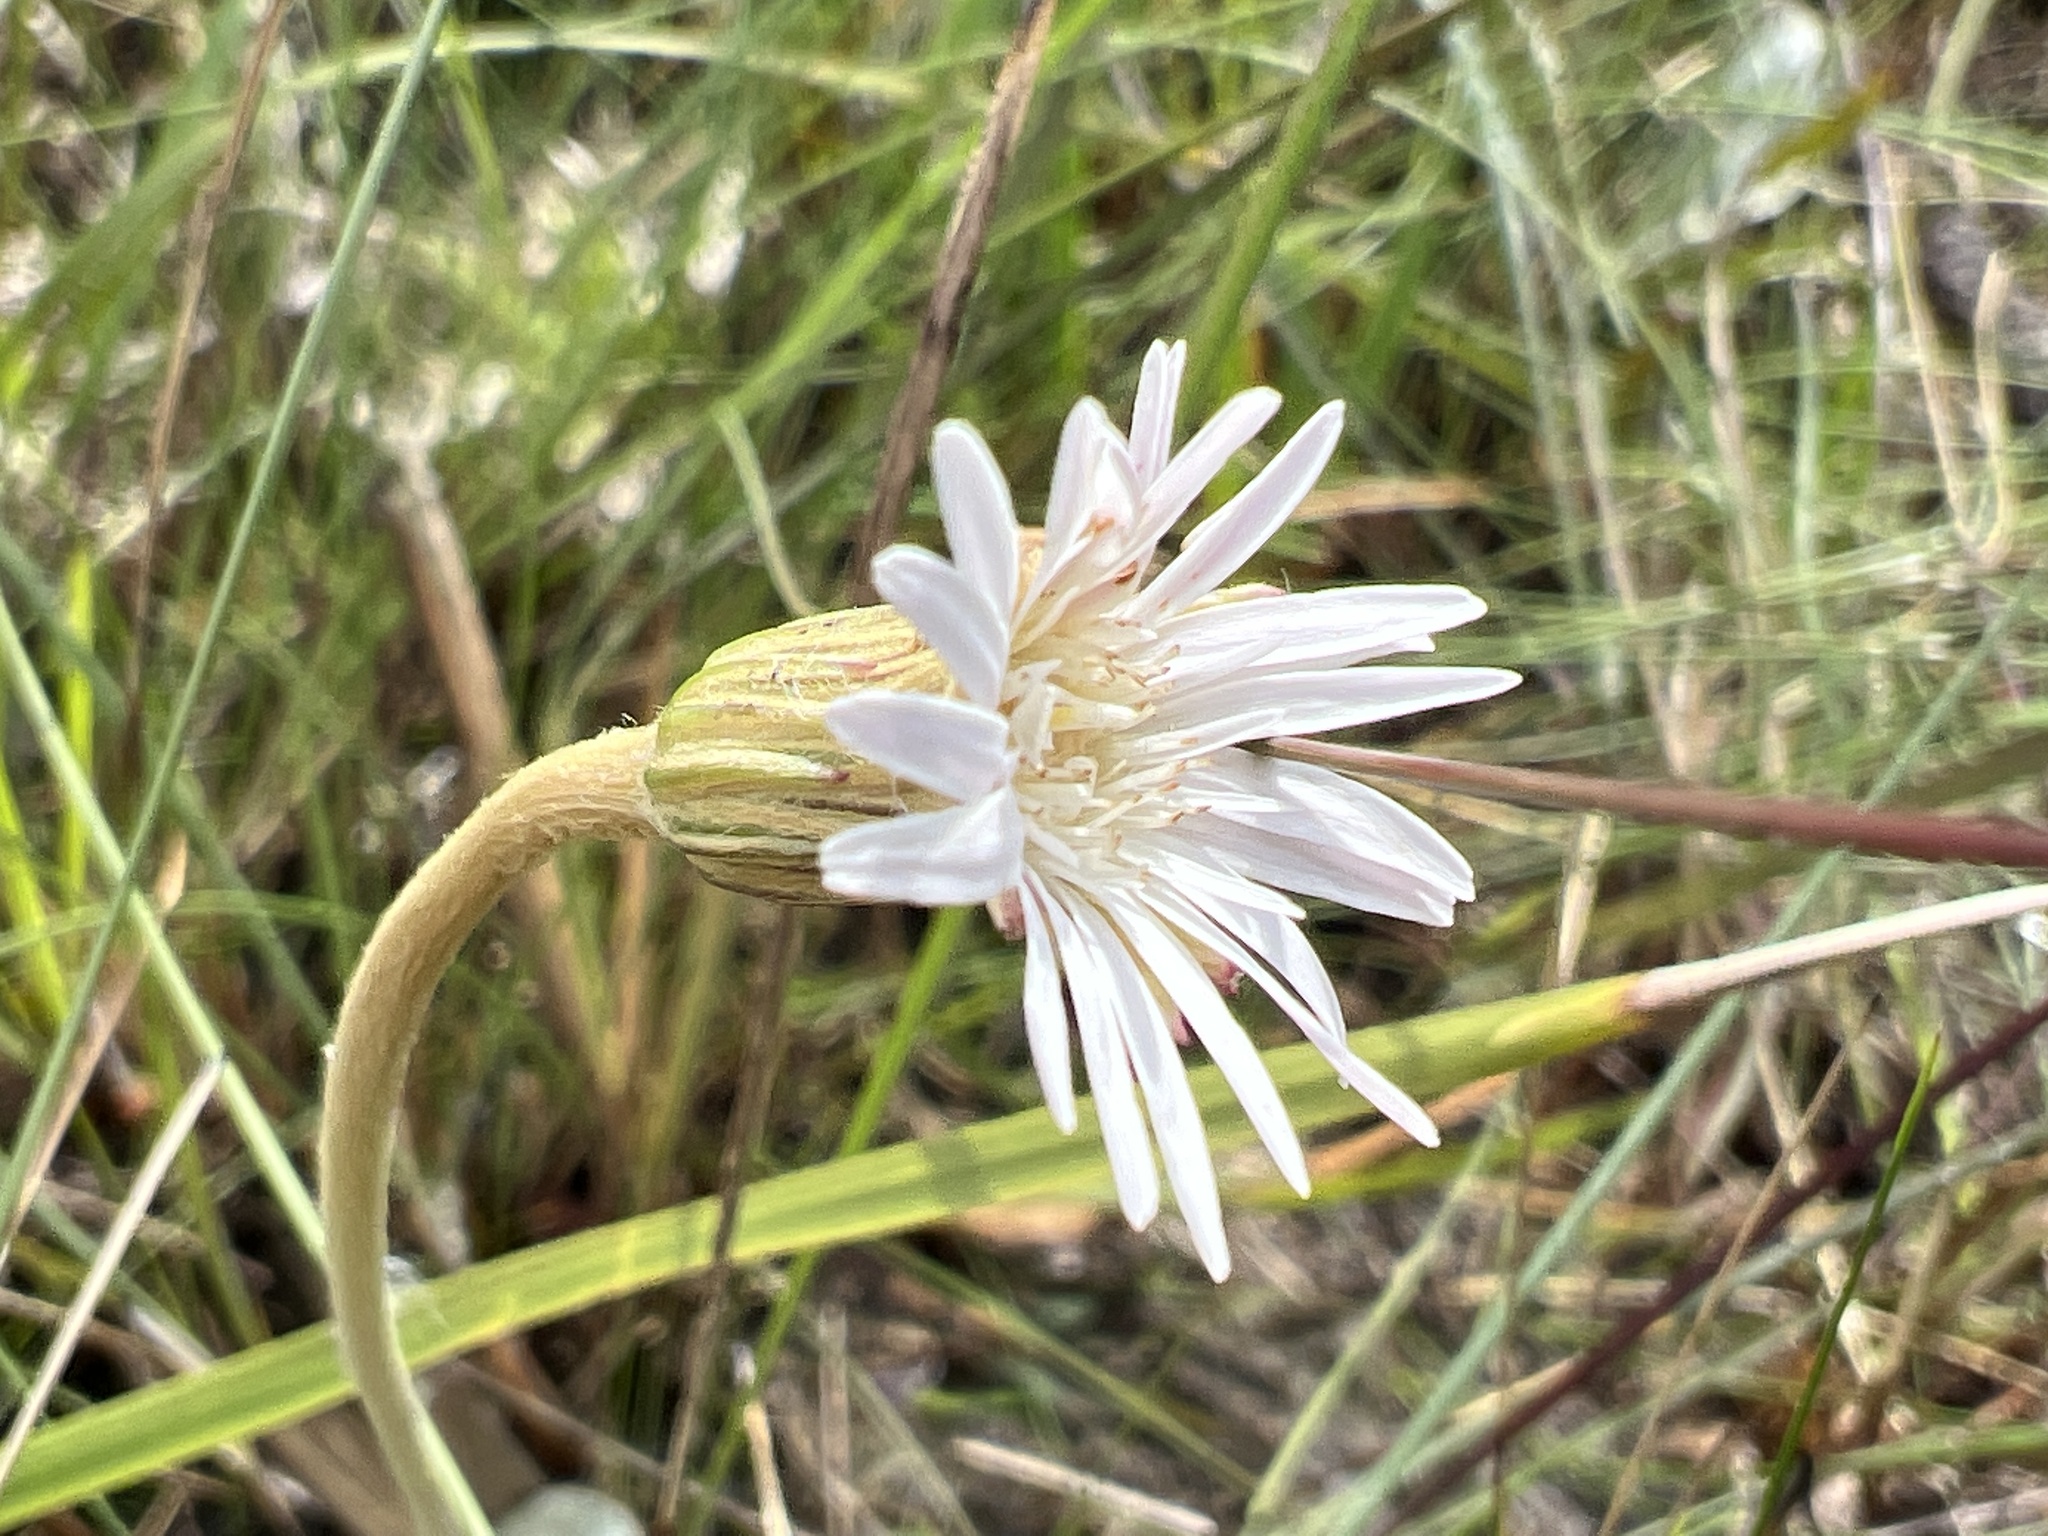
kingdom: Plantae
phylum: Tracheophyta
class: Magnoliopsida
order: Asterales
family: Asteraceae
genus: Chaptalia
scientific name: Chaptalia tomentosa
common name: Woolly sunbonnet
